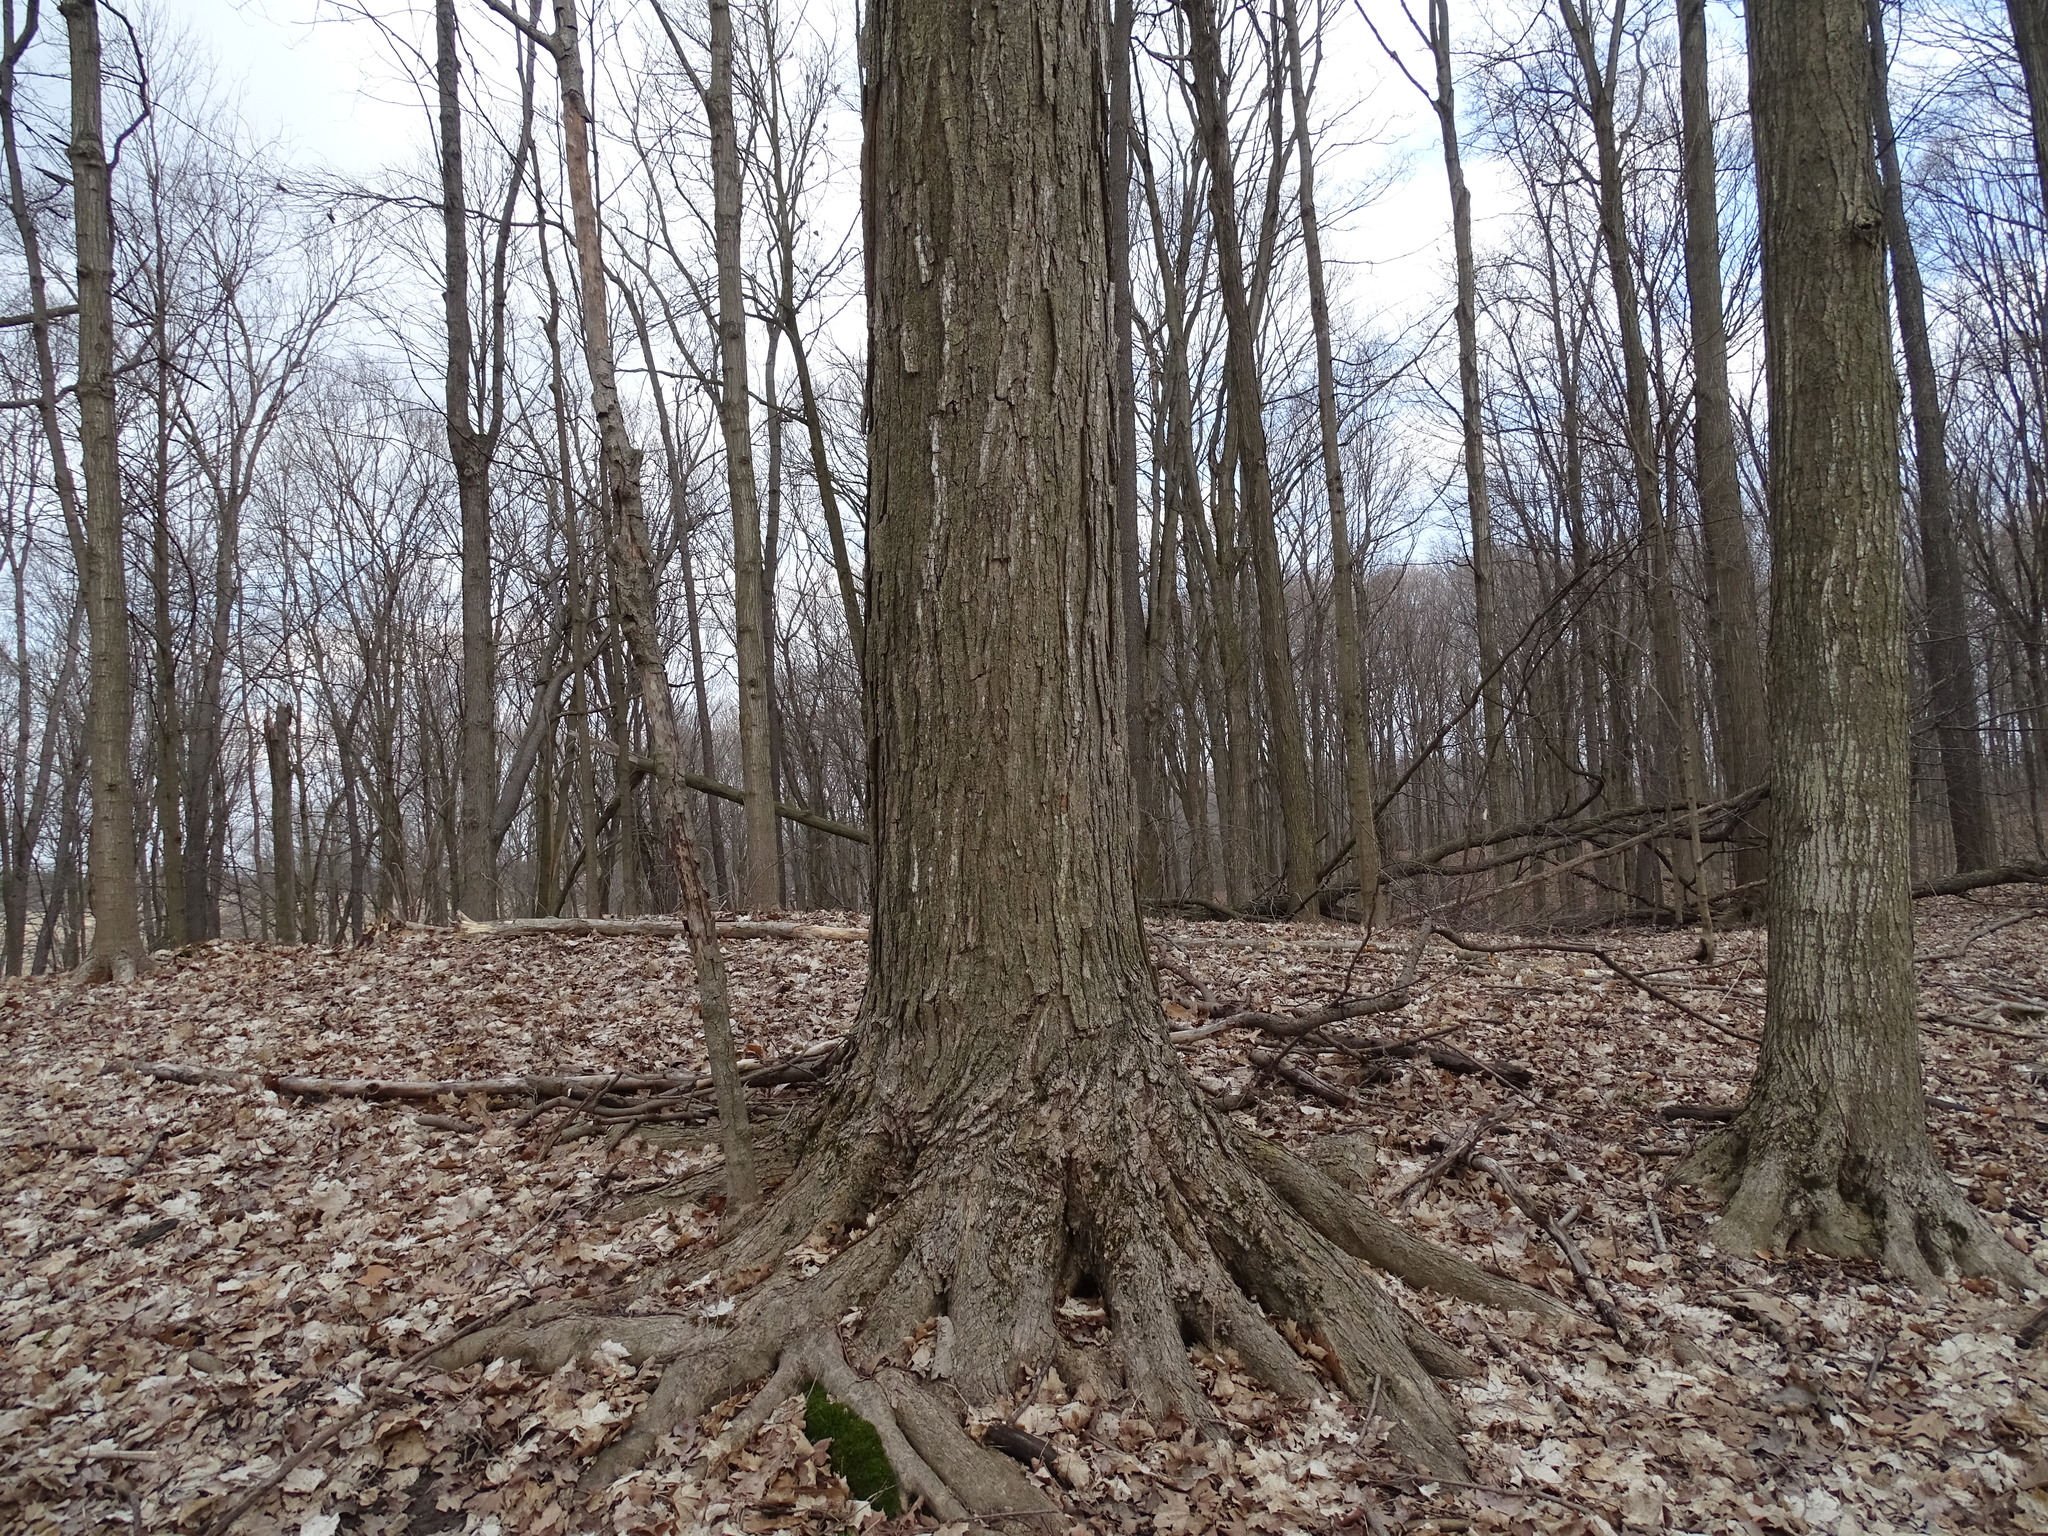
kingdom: Plantae
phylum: Tracheophyta
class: Magnoliopsida
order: Sapindales
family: Sapindaceae
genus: Acer
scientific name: Acer saccharum
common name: Sugar maple
